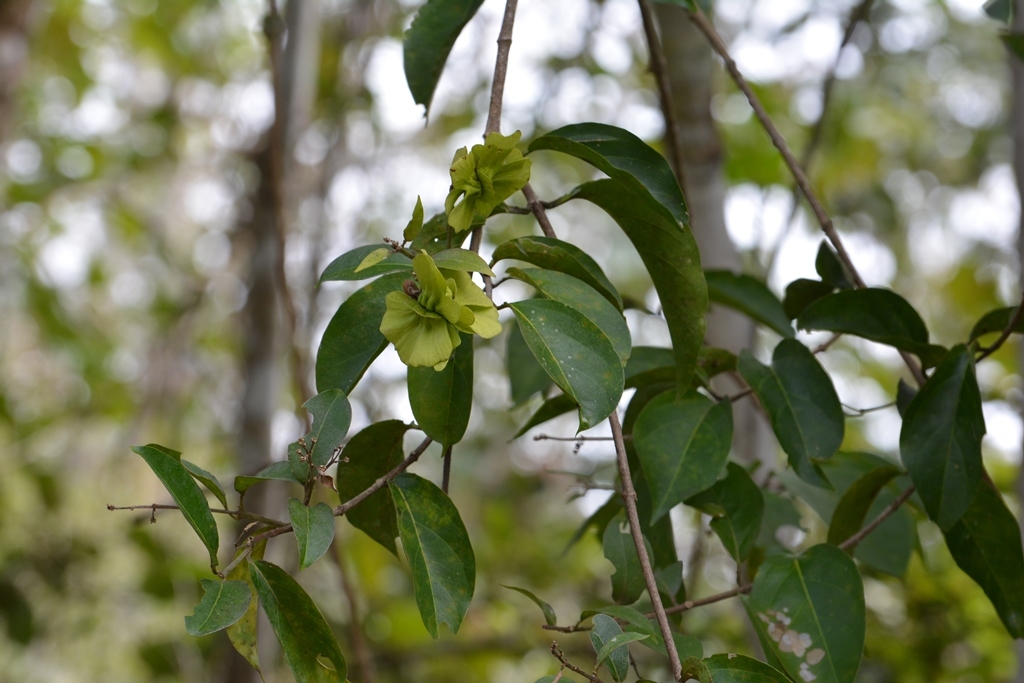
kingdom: Plantae
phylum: Tracheophyta
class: Magnoliopsida
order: Malpighiales
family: Malpighiaceae
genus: Psychopterys
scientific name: Psychopterys multiflora
